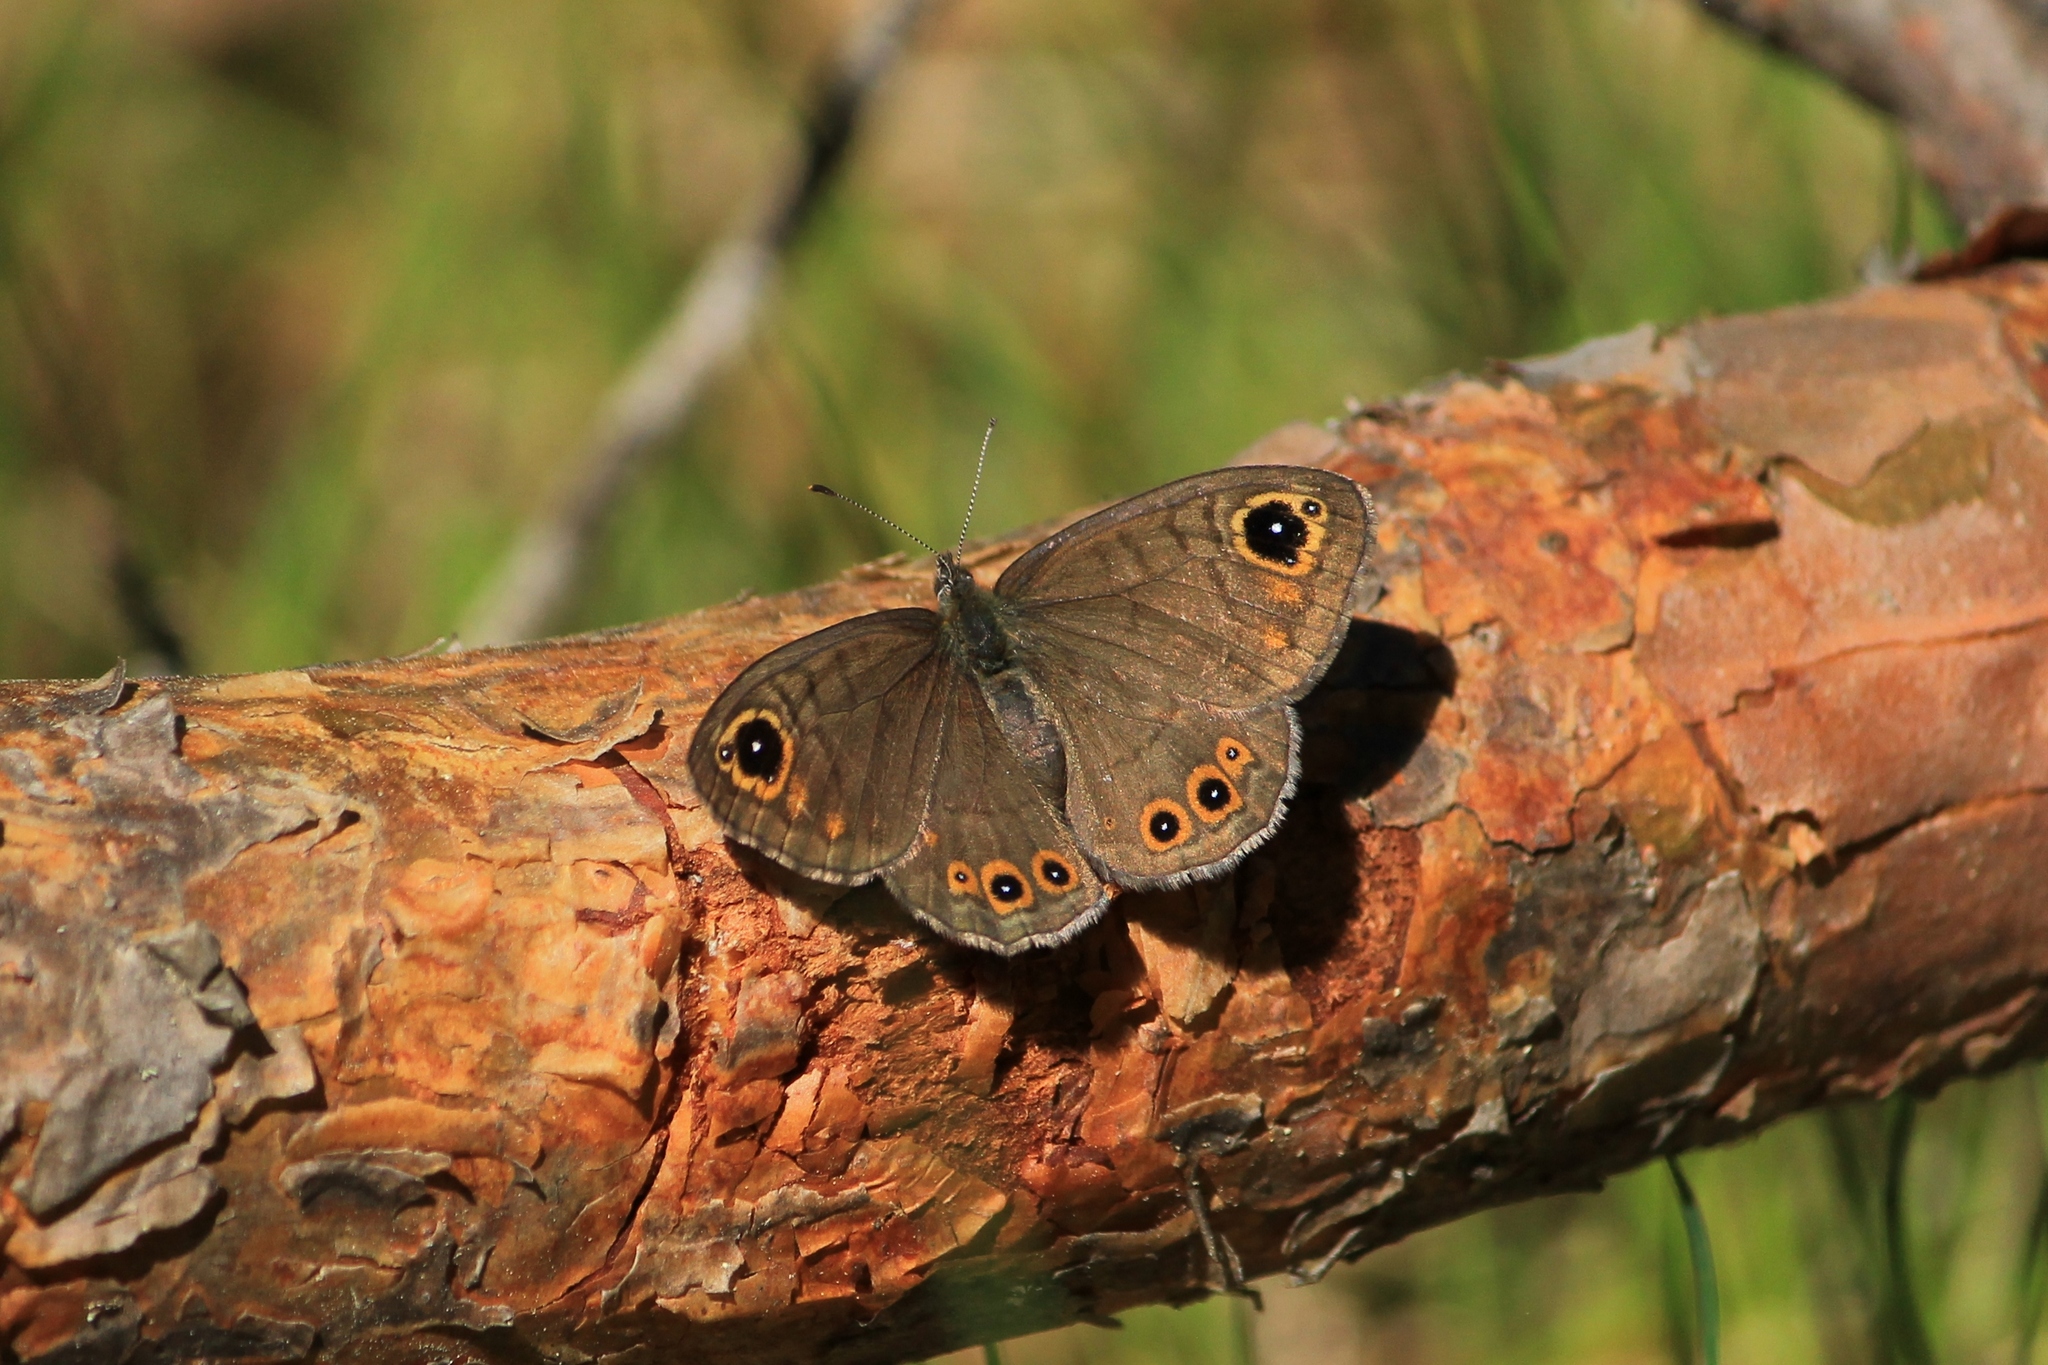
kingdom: Animalia
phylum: Arthropoda
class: Insecta
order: Lepidoptera
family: Nymphalidae
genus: Pararge
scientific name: Pararge petropolitana
